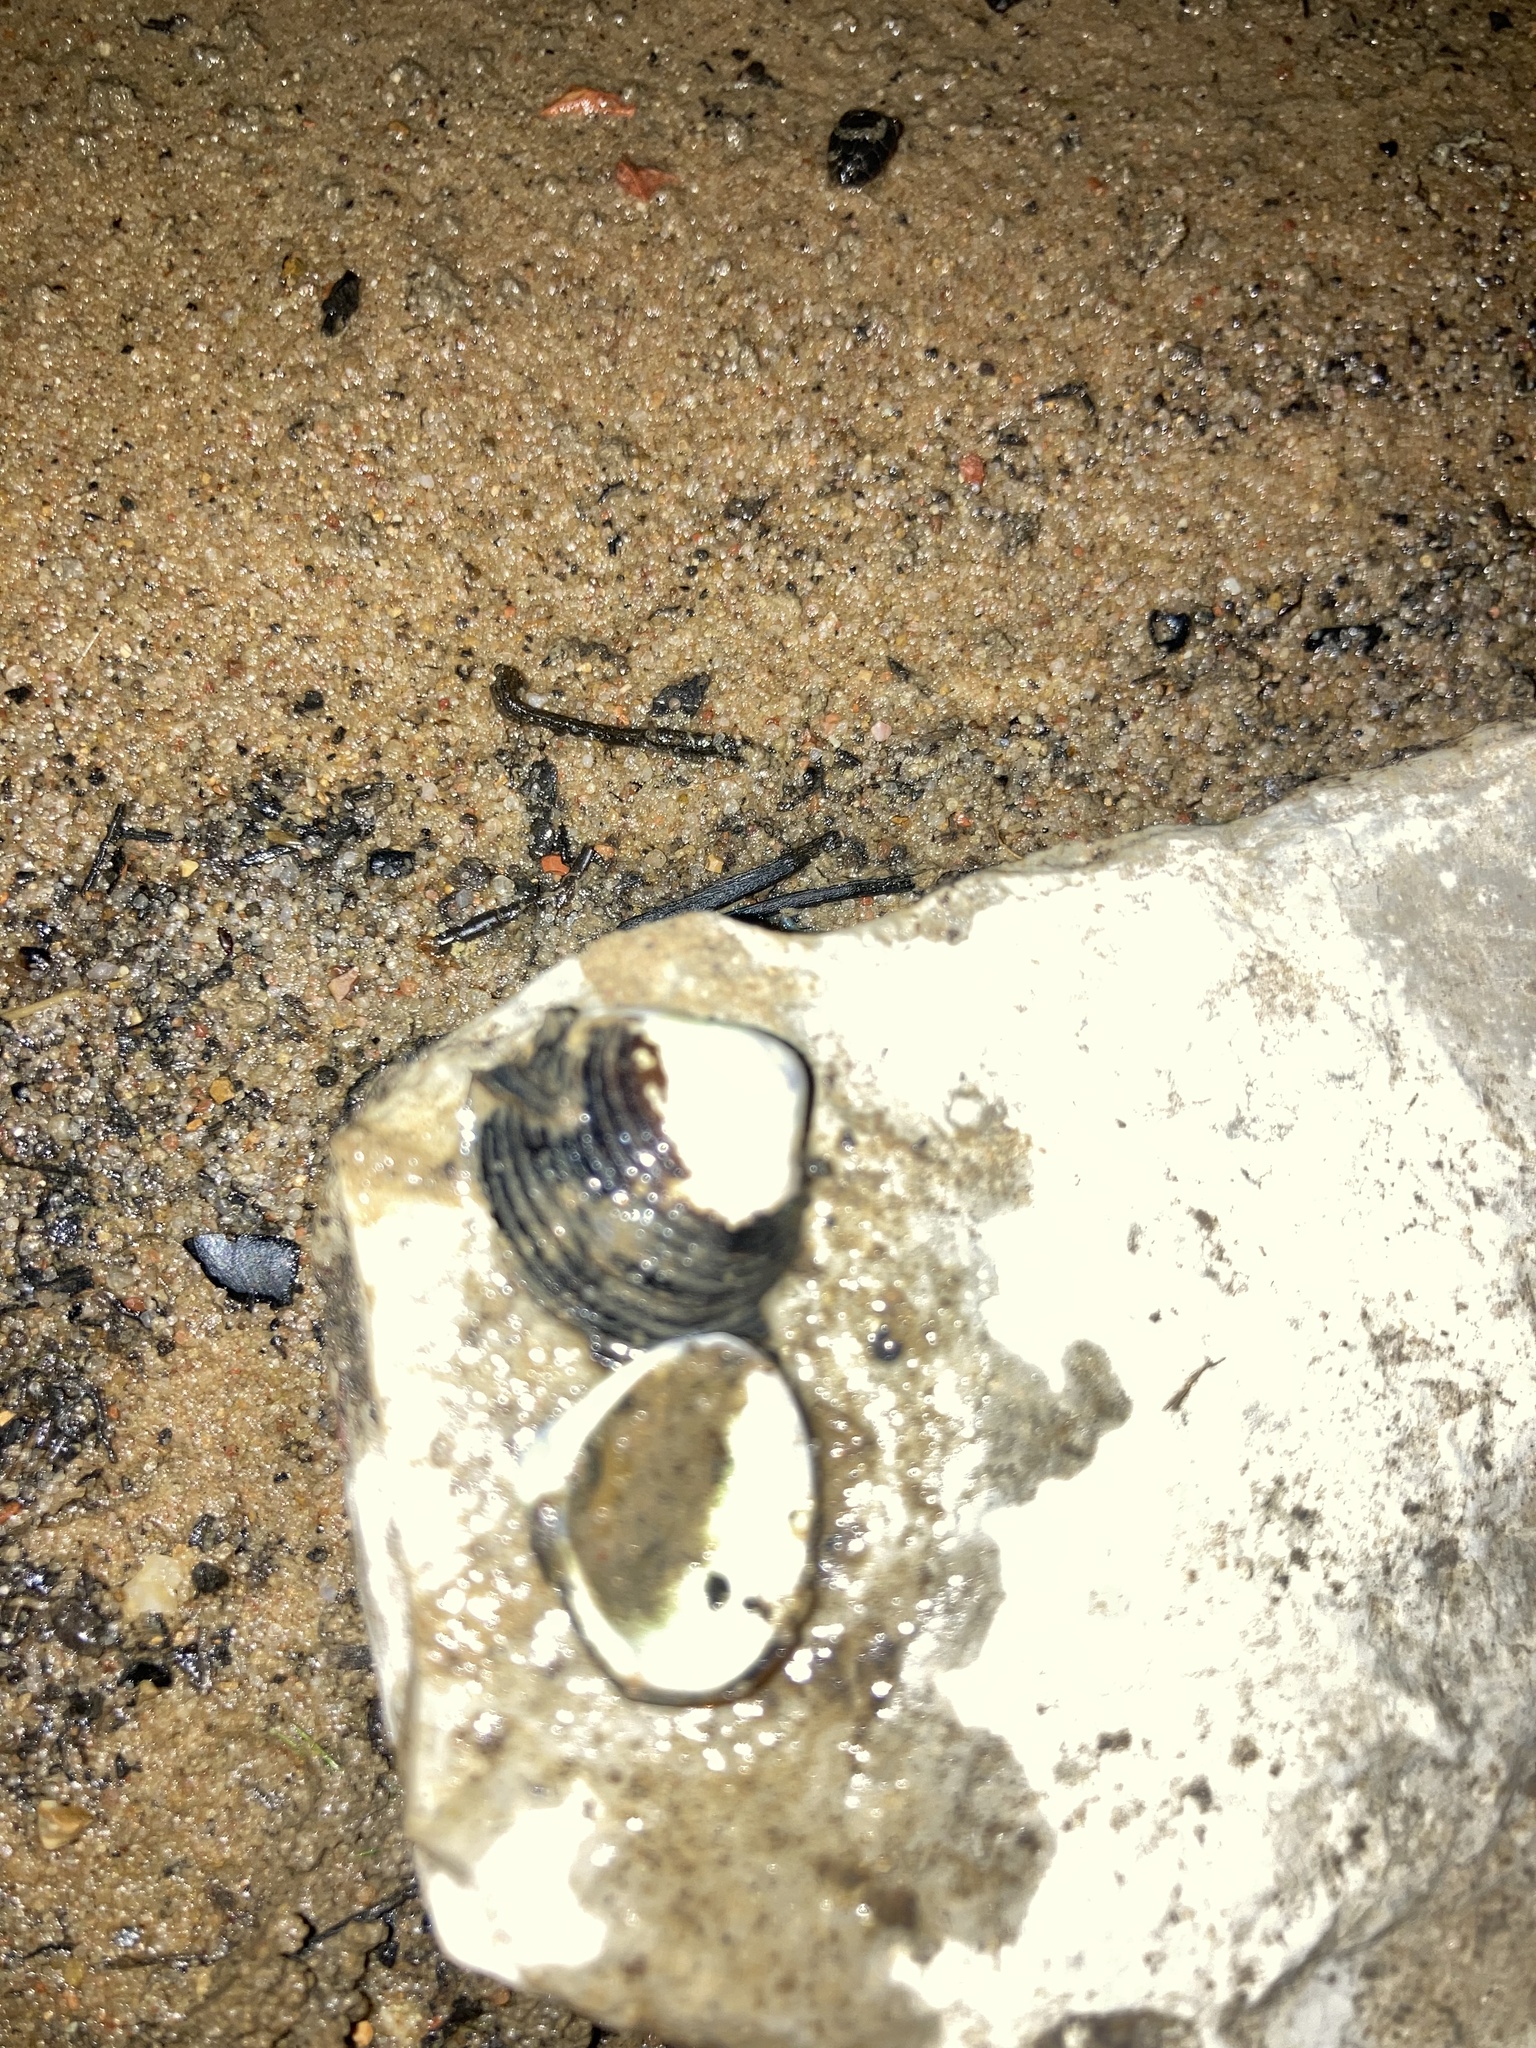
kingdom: Animalia
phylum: Mollusca
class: Bivalvia
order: Venerida
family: Cyrenidae
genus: Corbicula
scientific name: Corbicula fluminea
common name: Asian clam
